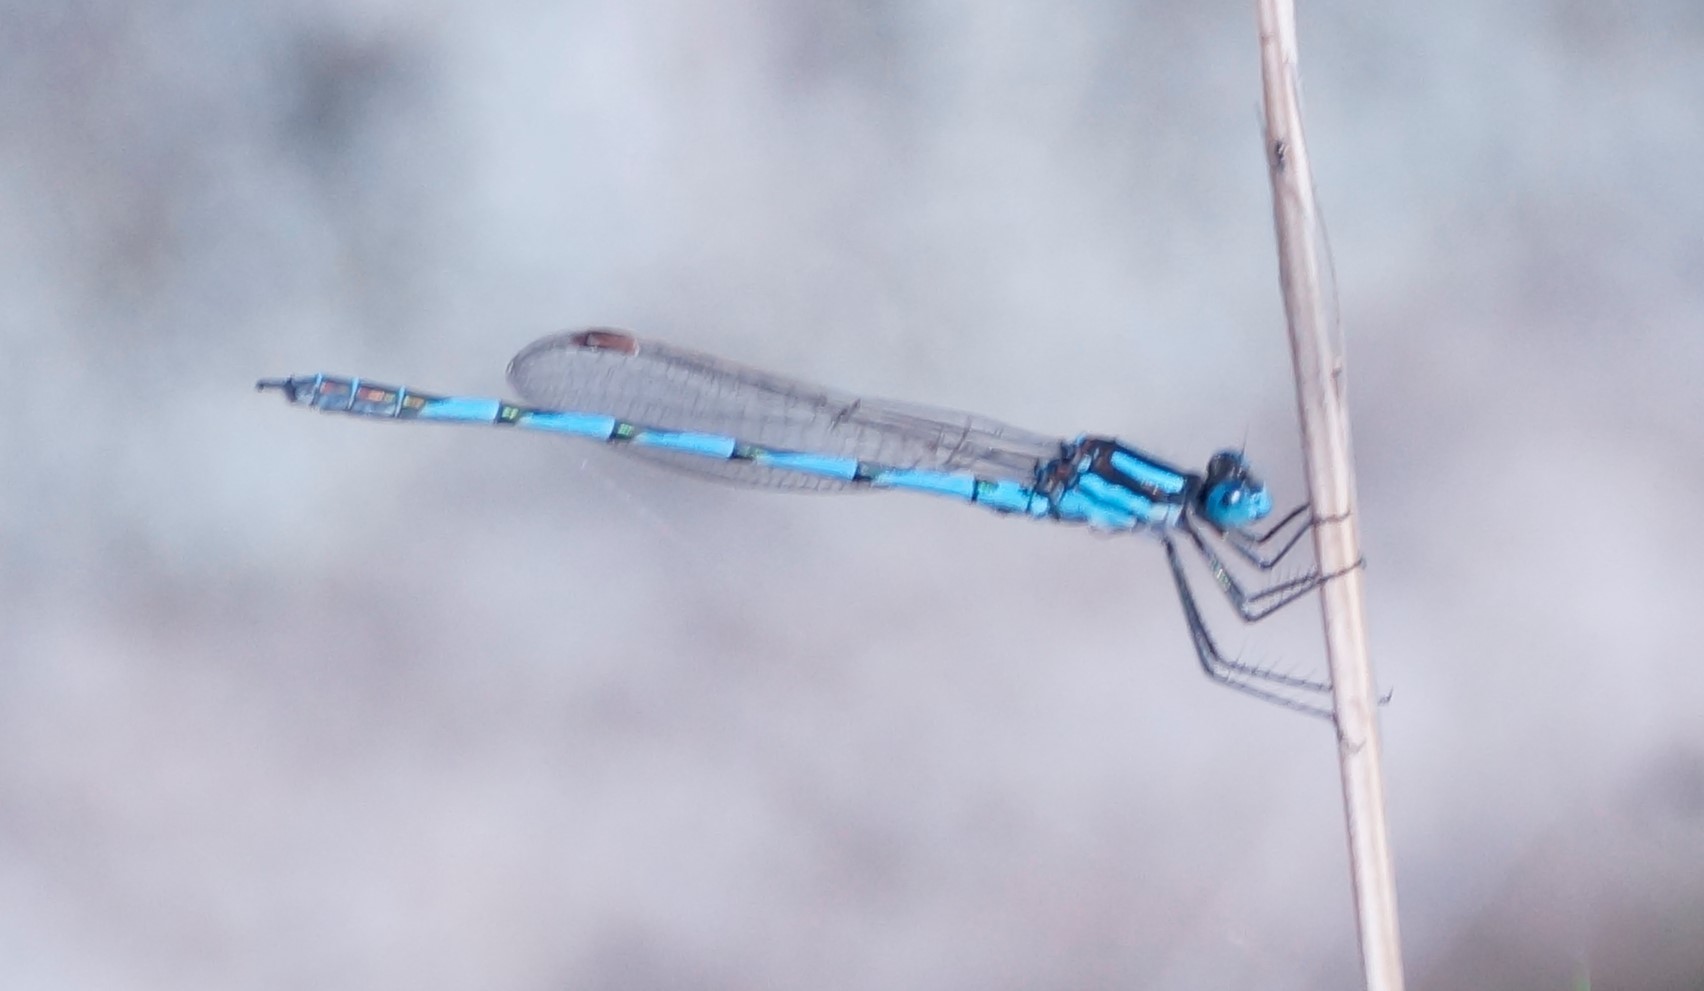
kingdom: Animalia
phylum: Arthropoda
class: Insecta
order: Odonata
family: Lestidae
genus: Austrolestes
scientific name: Austrolestes annulosus
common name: Blue ringtail
